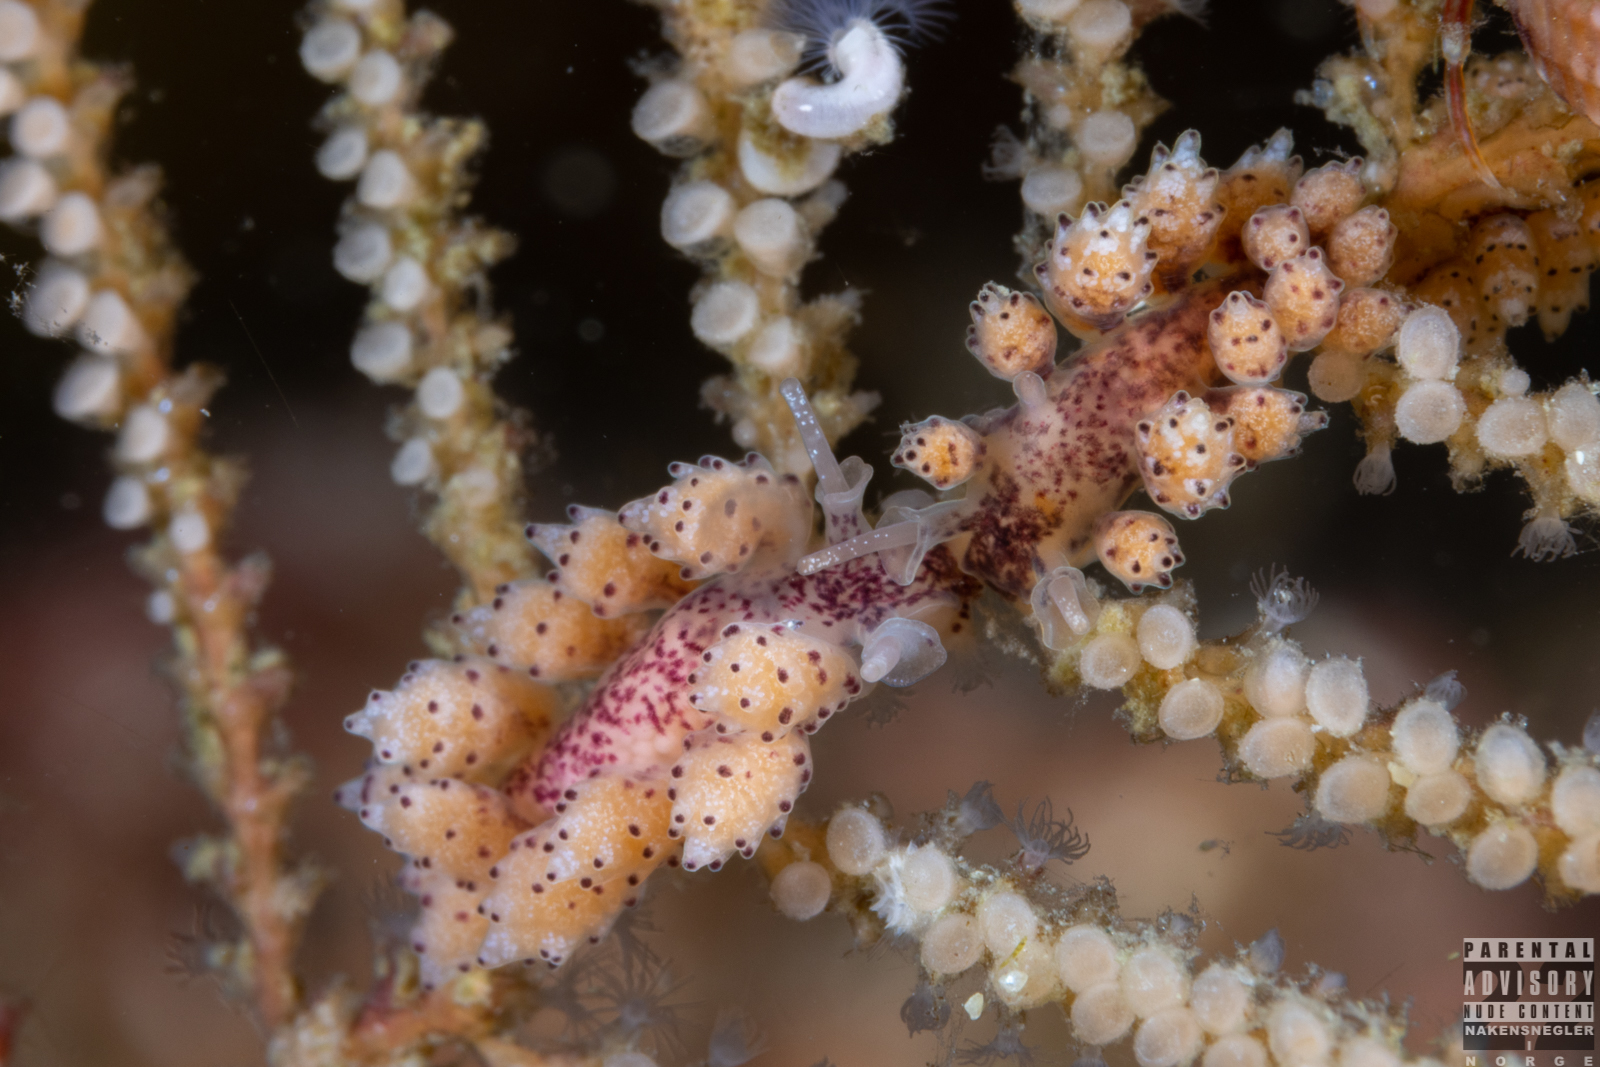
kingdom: Animalia
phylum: Mollusca
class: Gastropoda
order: Nudibranchia
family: Dotidae
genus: Doto
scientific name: Doto coronata
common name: Coronate doto
